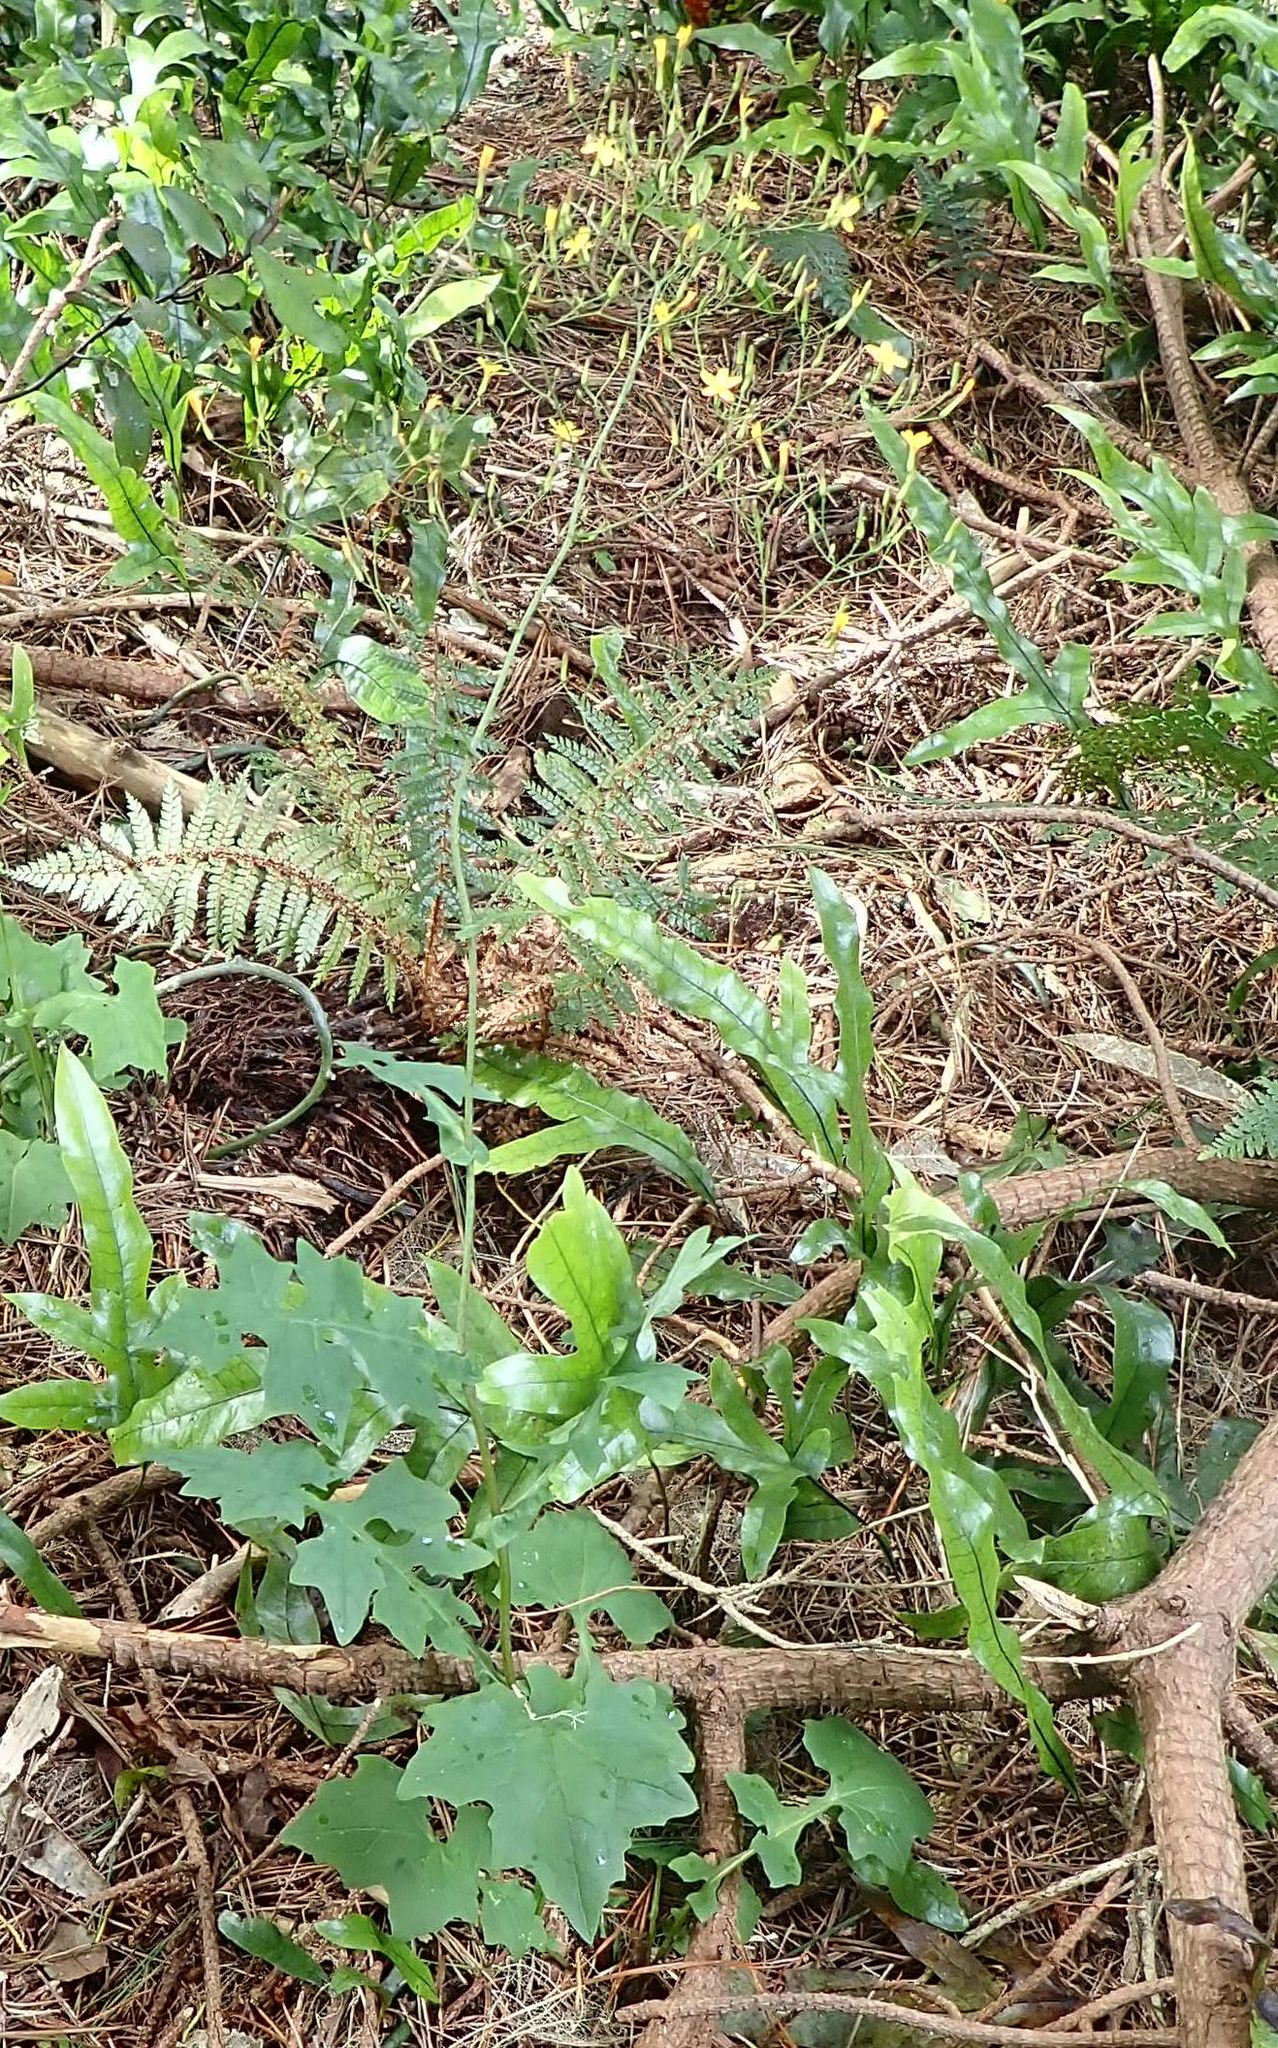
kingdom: Plantae
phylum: Tracheophyta
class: Magnoliopsida
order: Asterales
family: Asteraceae
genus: Mycelis
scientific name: Mycelis muralis
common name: Wall lettuce
